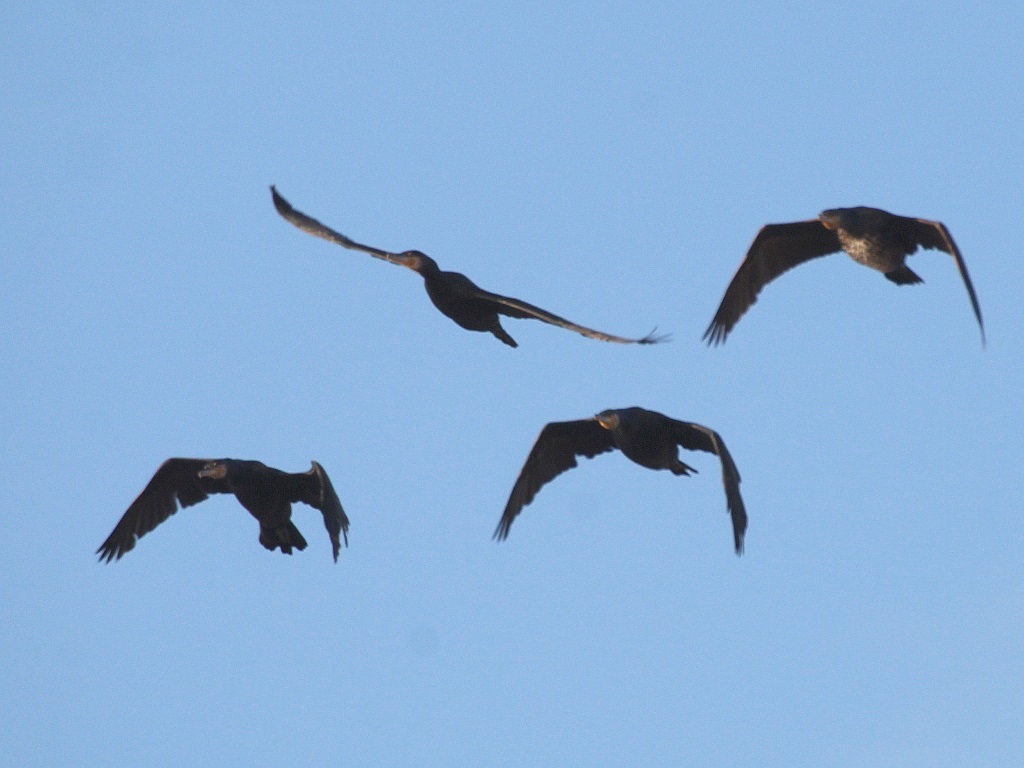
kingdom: Animalia
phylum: Chordata
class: Aves
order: Suliformes
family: Phalacrocoracidae
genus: Phalacrocorax
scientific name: Phalacrocorax carbo
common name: Great cormorant
